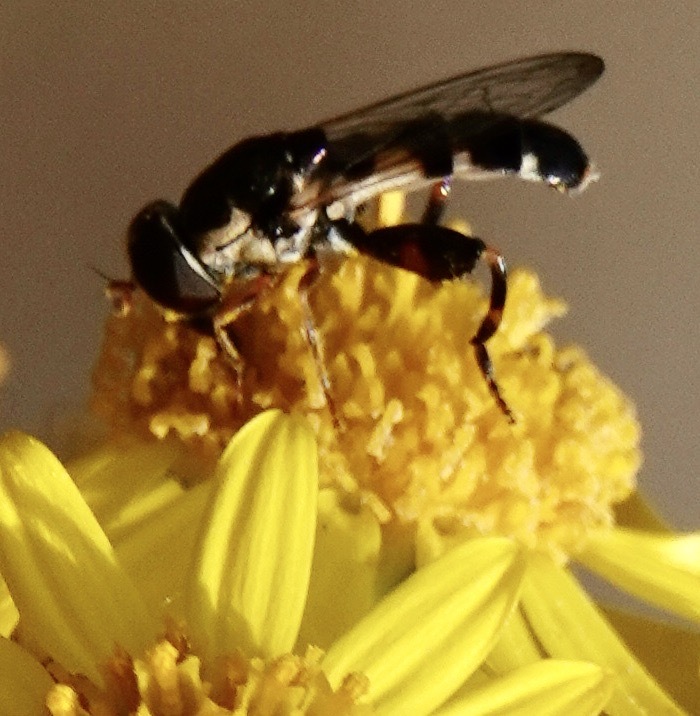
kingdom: Animalia
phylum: Arthropoda
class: Insecta
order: Diptera
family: Syrphidae
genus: Syritta
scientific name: Syritta pipiens
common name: Hover fly
